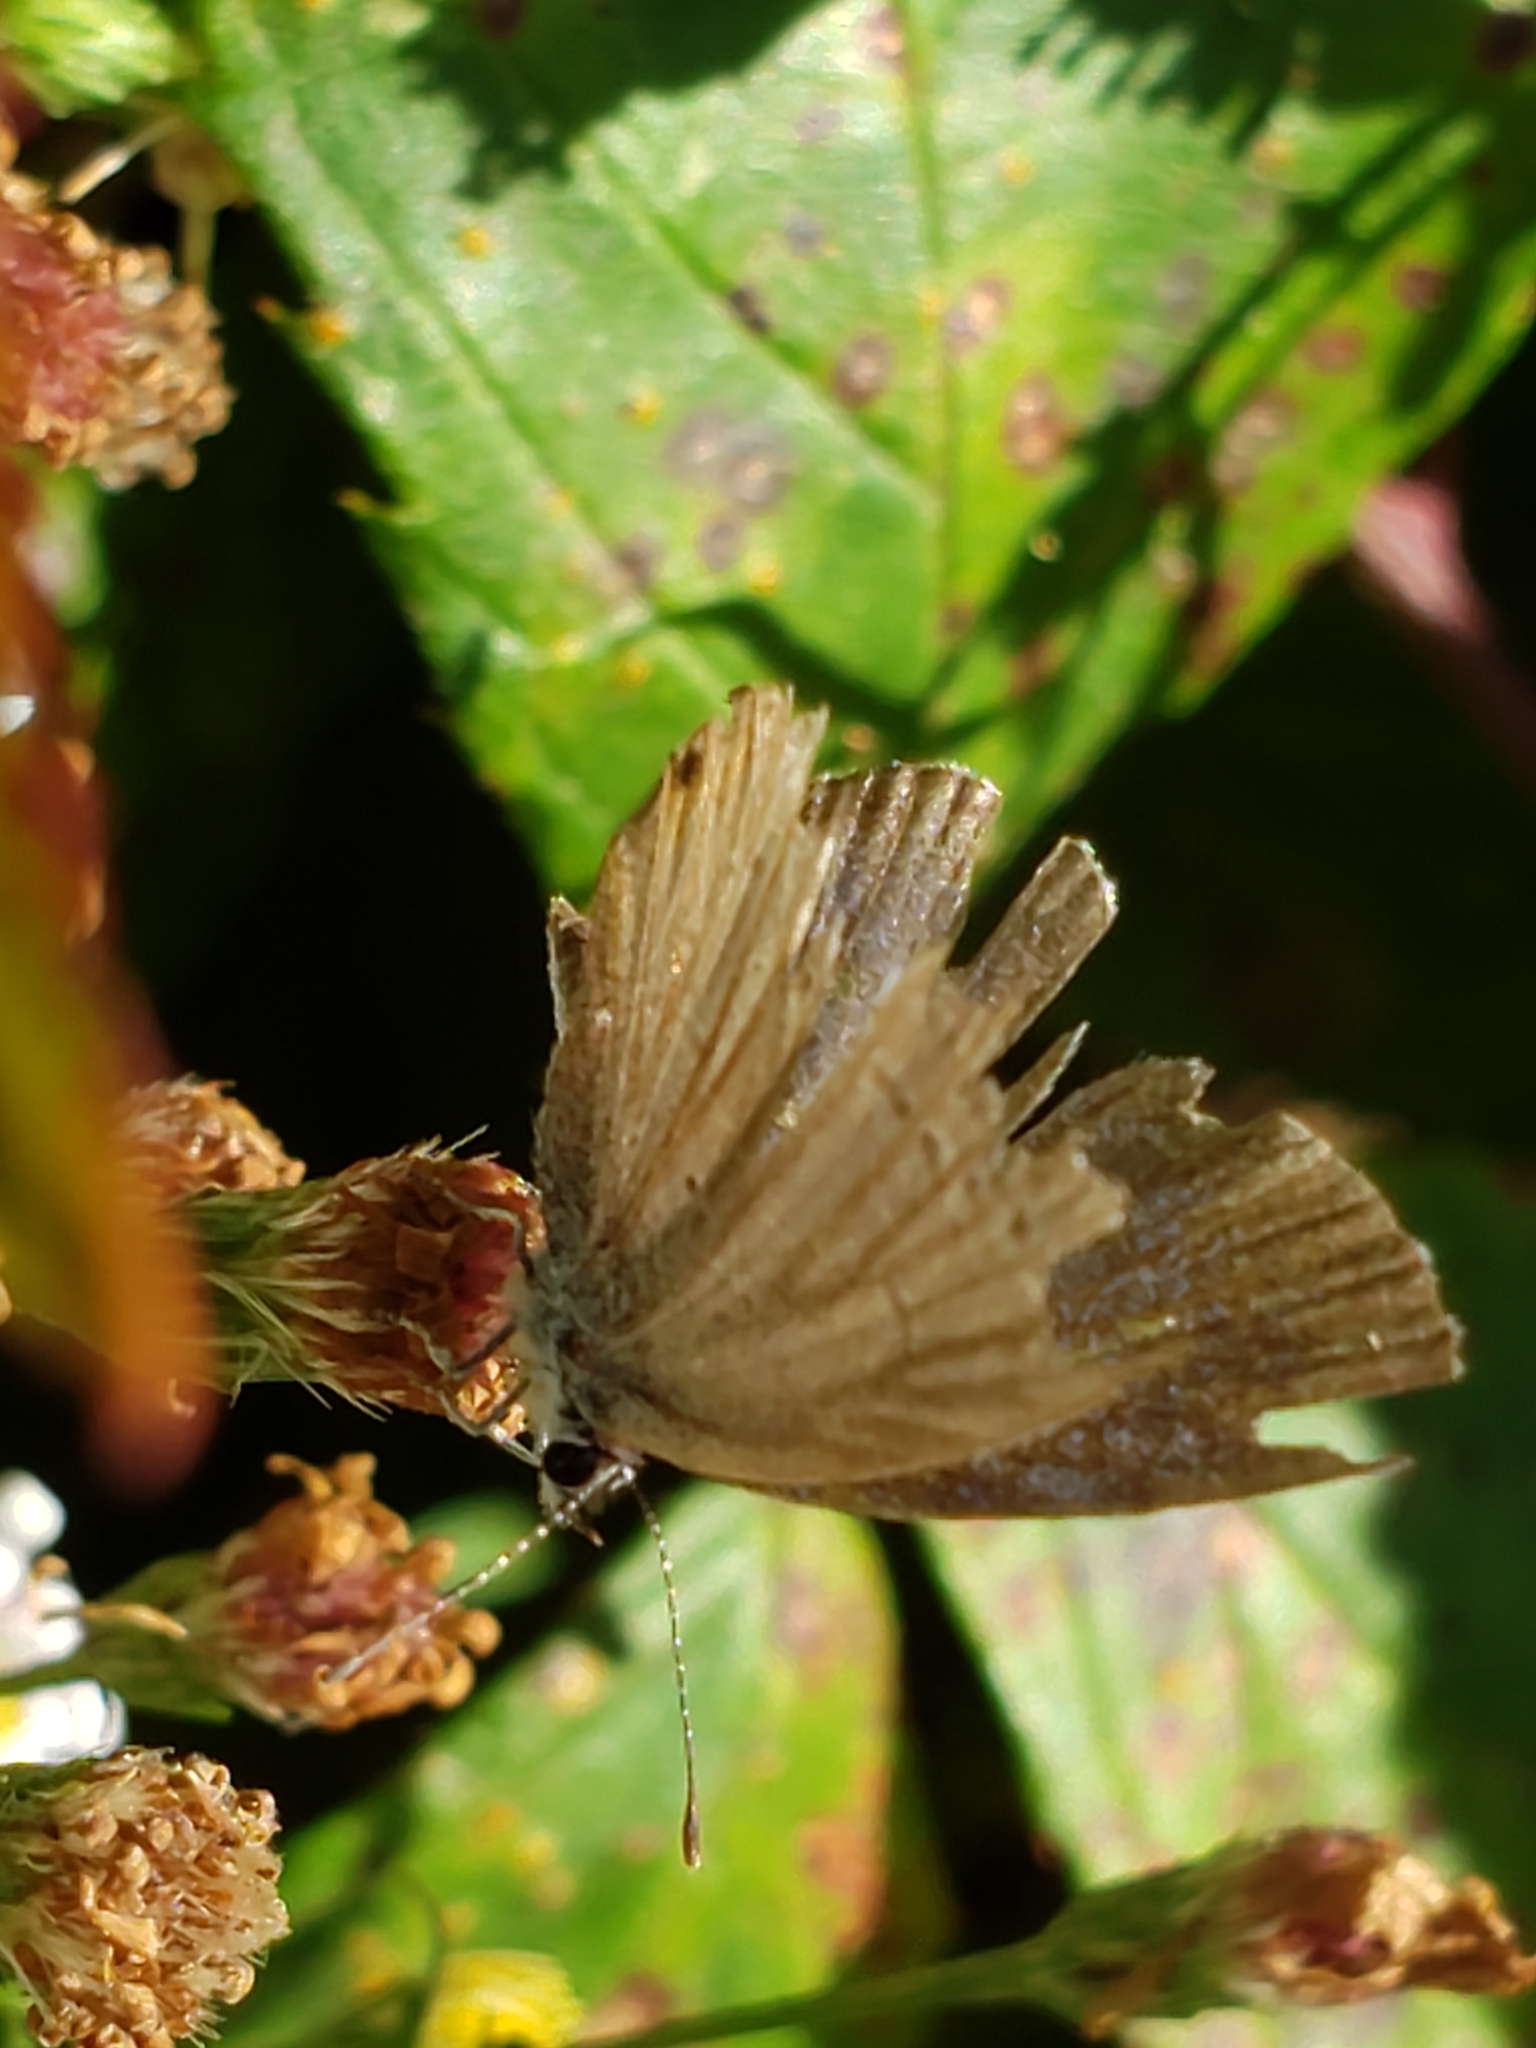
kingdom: Animalia
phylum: Arthropoda
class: Insecta
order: Lepidoptera
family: Lycaenidae
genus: Elkalyce
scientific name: Elkalyce comyntas
